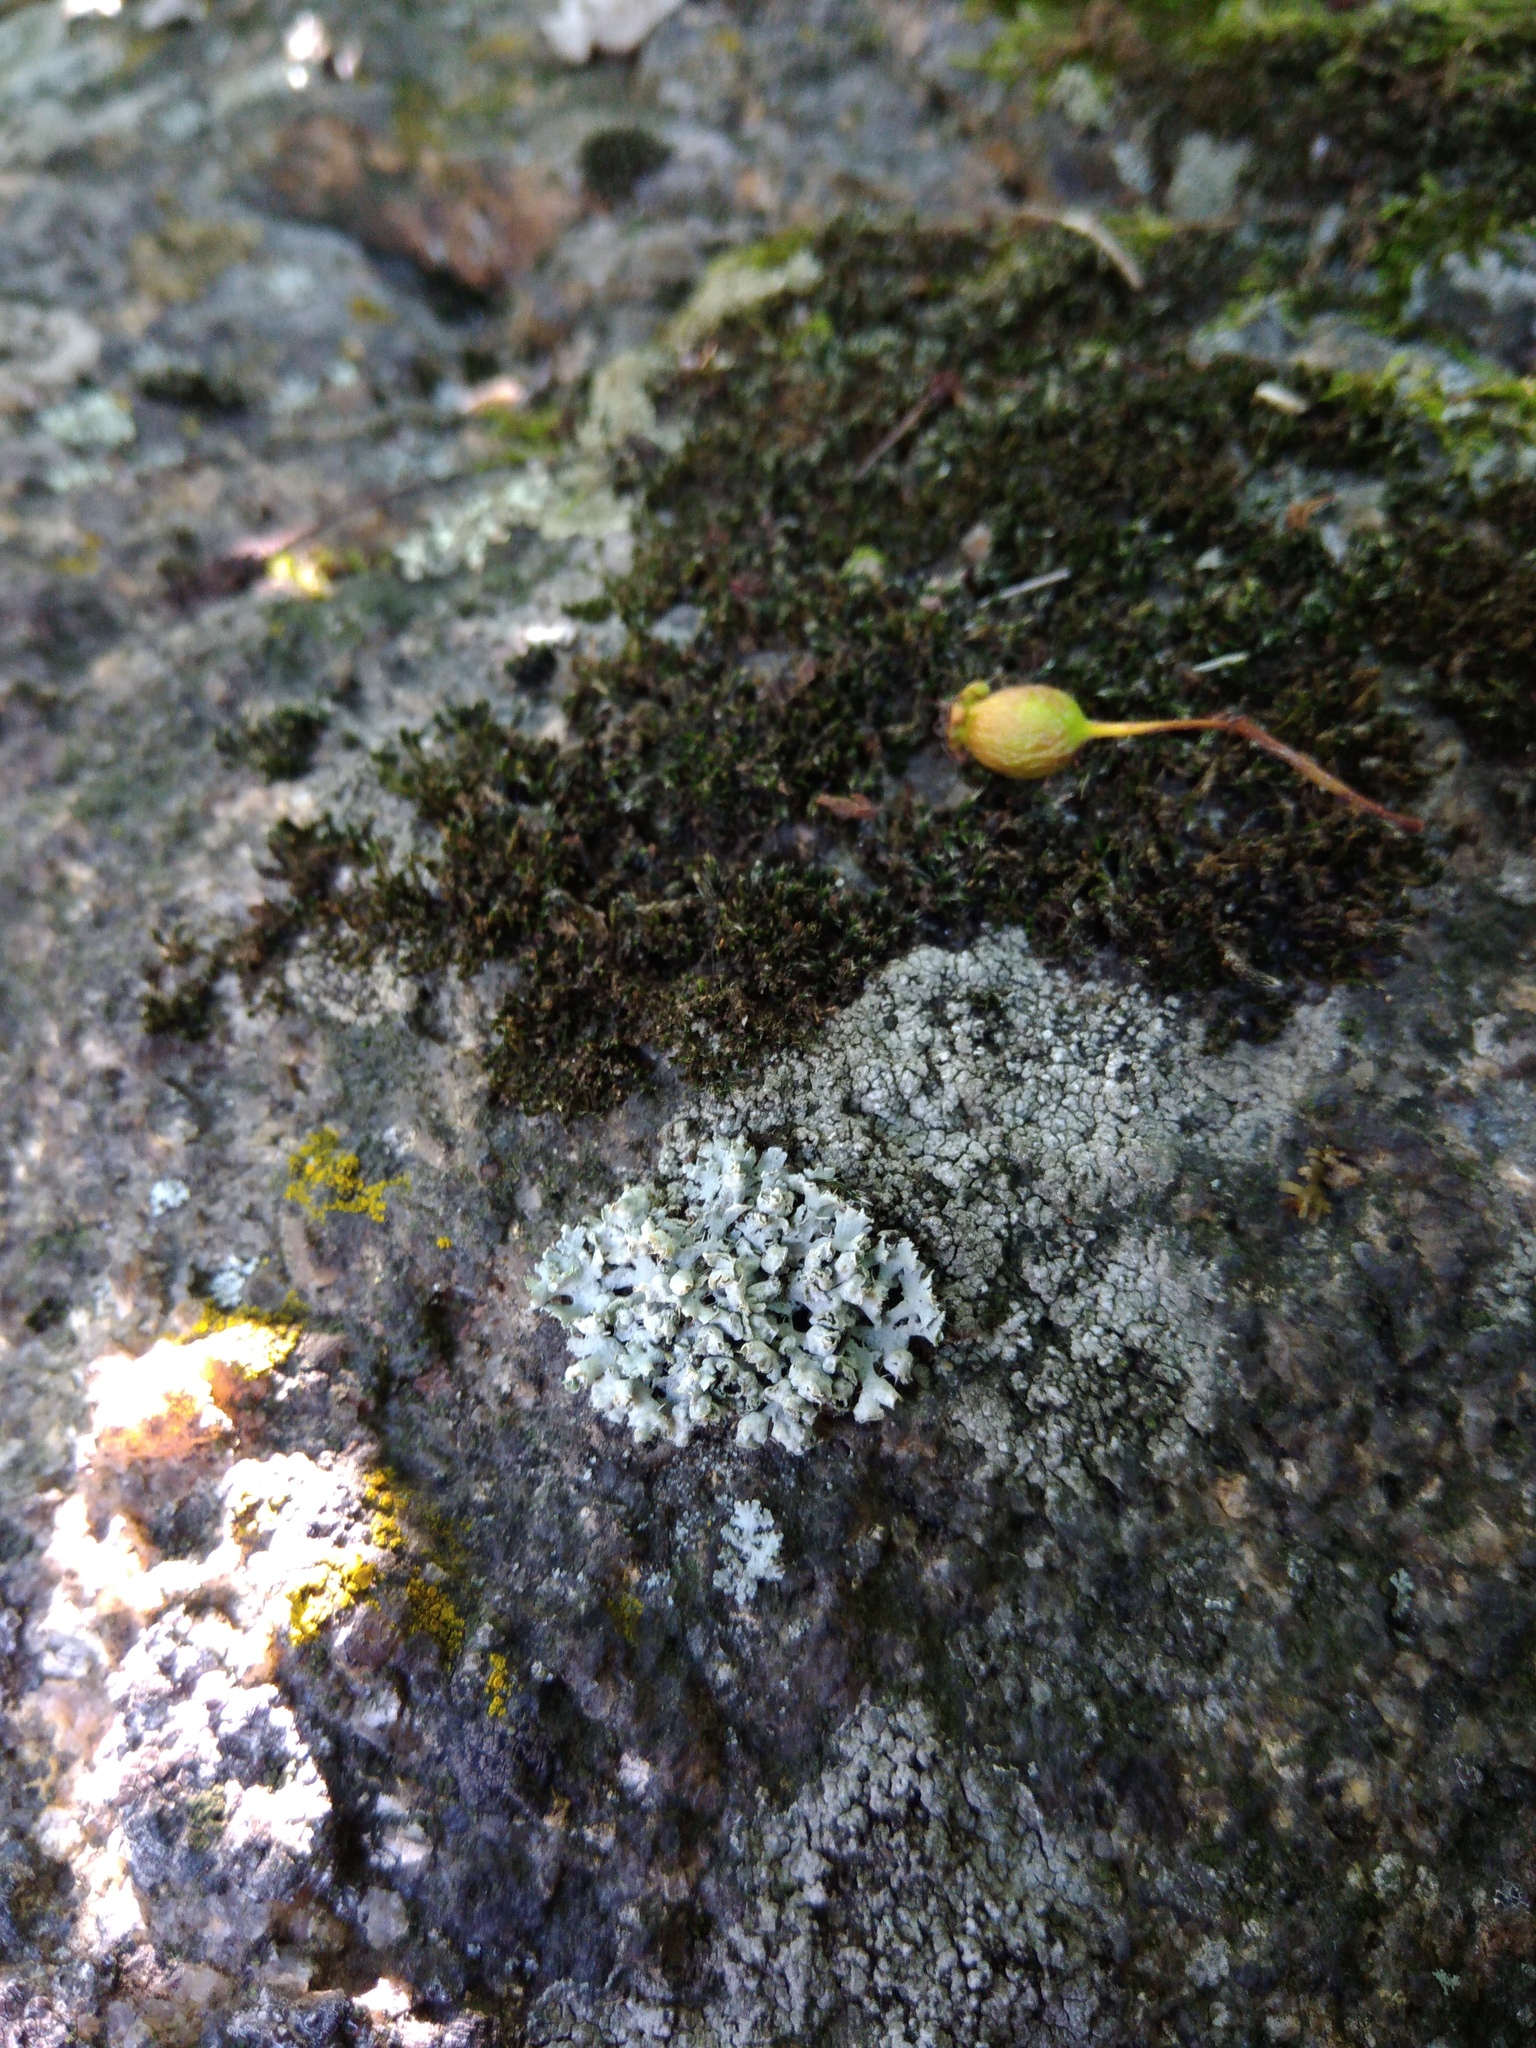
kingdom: Fungi
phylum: Ascomycota
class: Lecanoromycetes
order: Caliciales
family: Physciaceae
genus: Physcia
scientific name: Physcia adscendens
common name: Hooded rosette lichen
